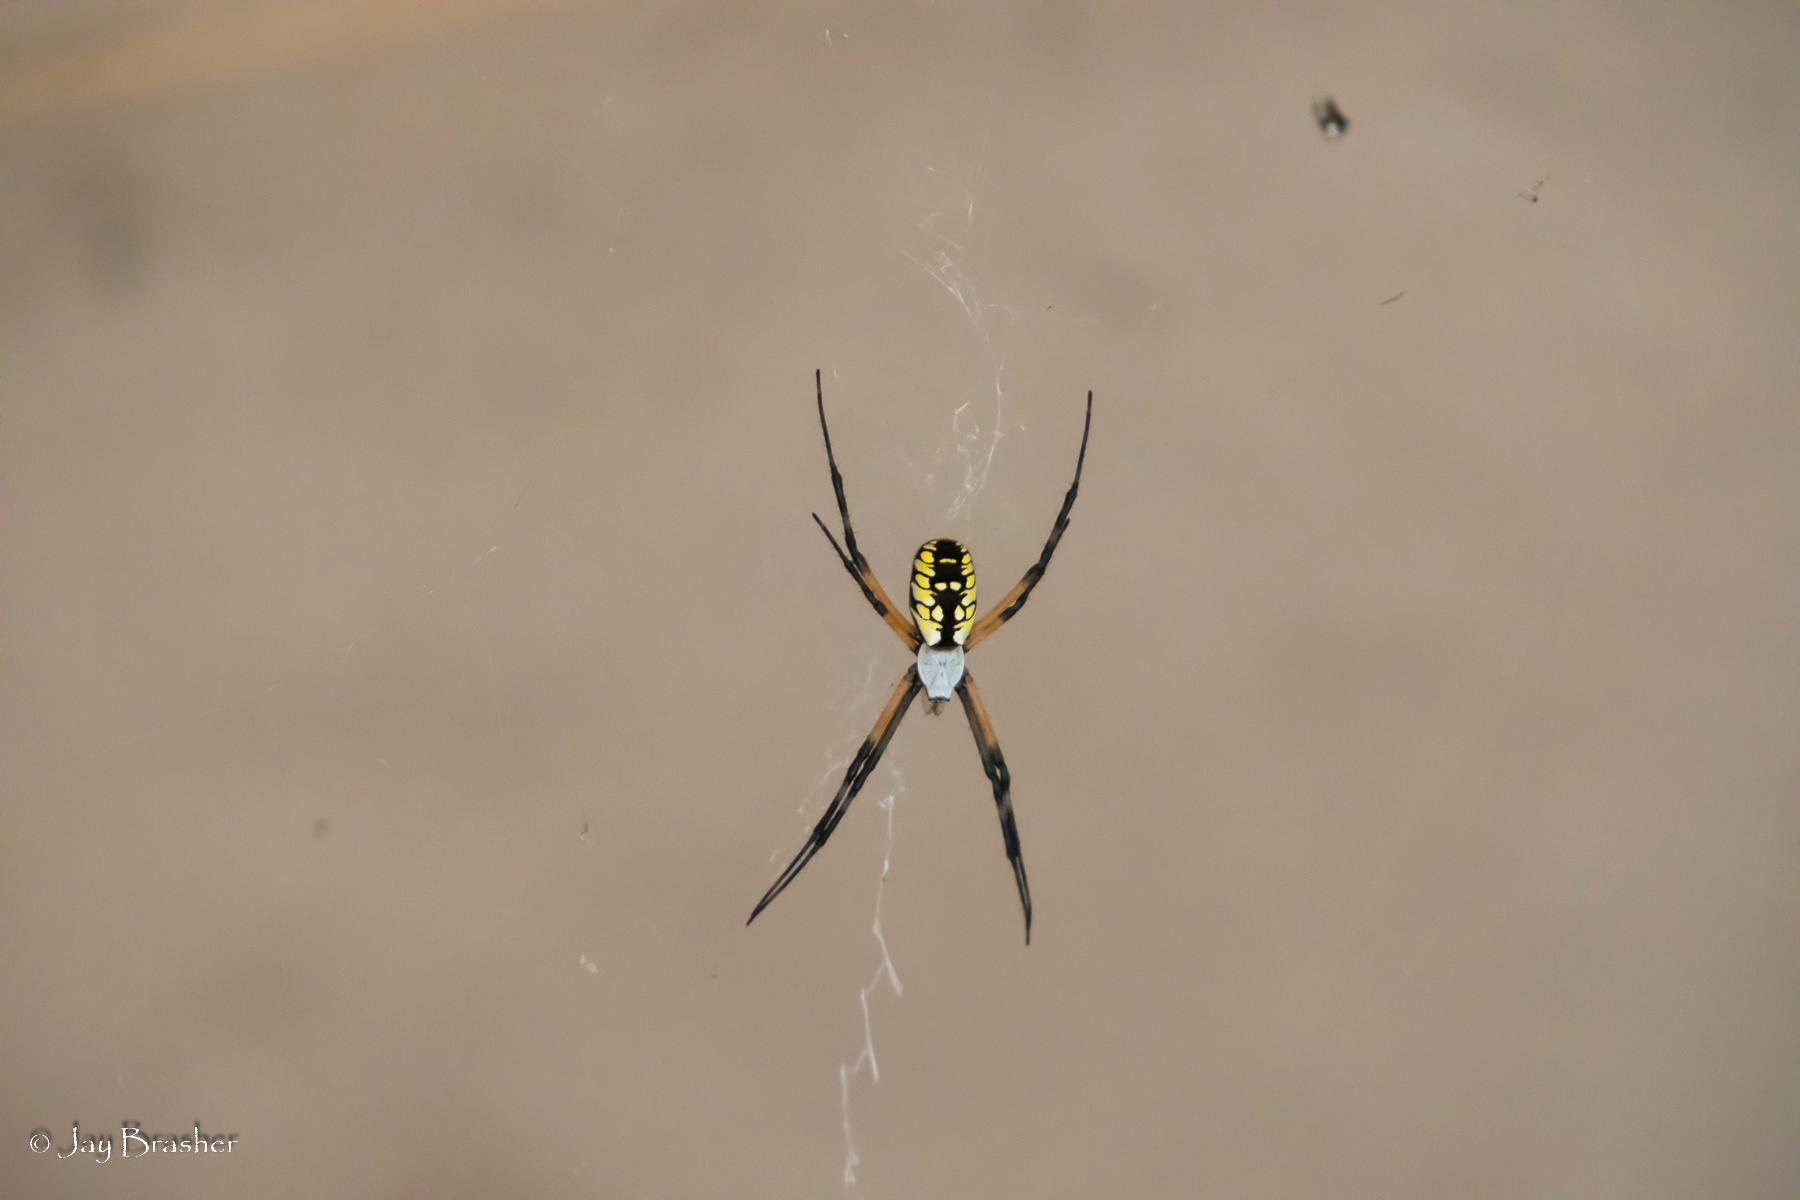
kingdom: Animalia
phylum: Arthropoda
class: Arachnida
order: Araneae
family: Araneidae
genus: Argiope
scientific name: Argiope aurantia
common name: Orb weavers
